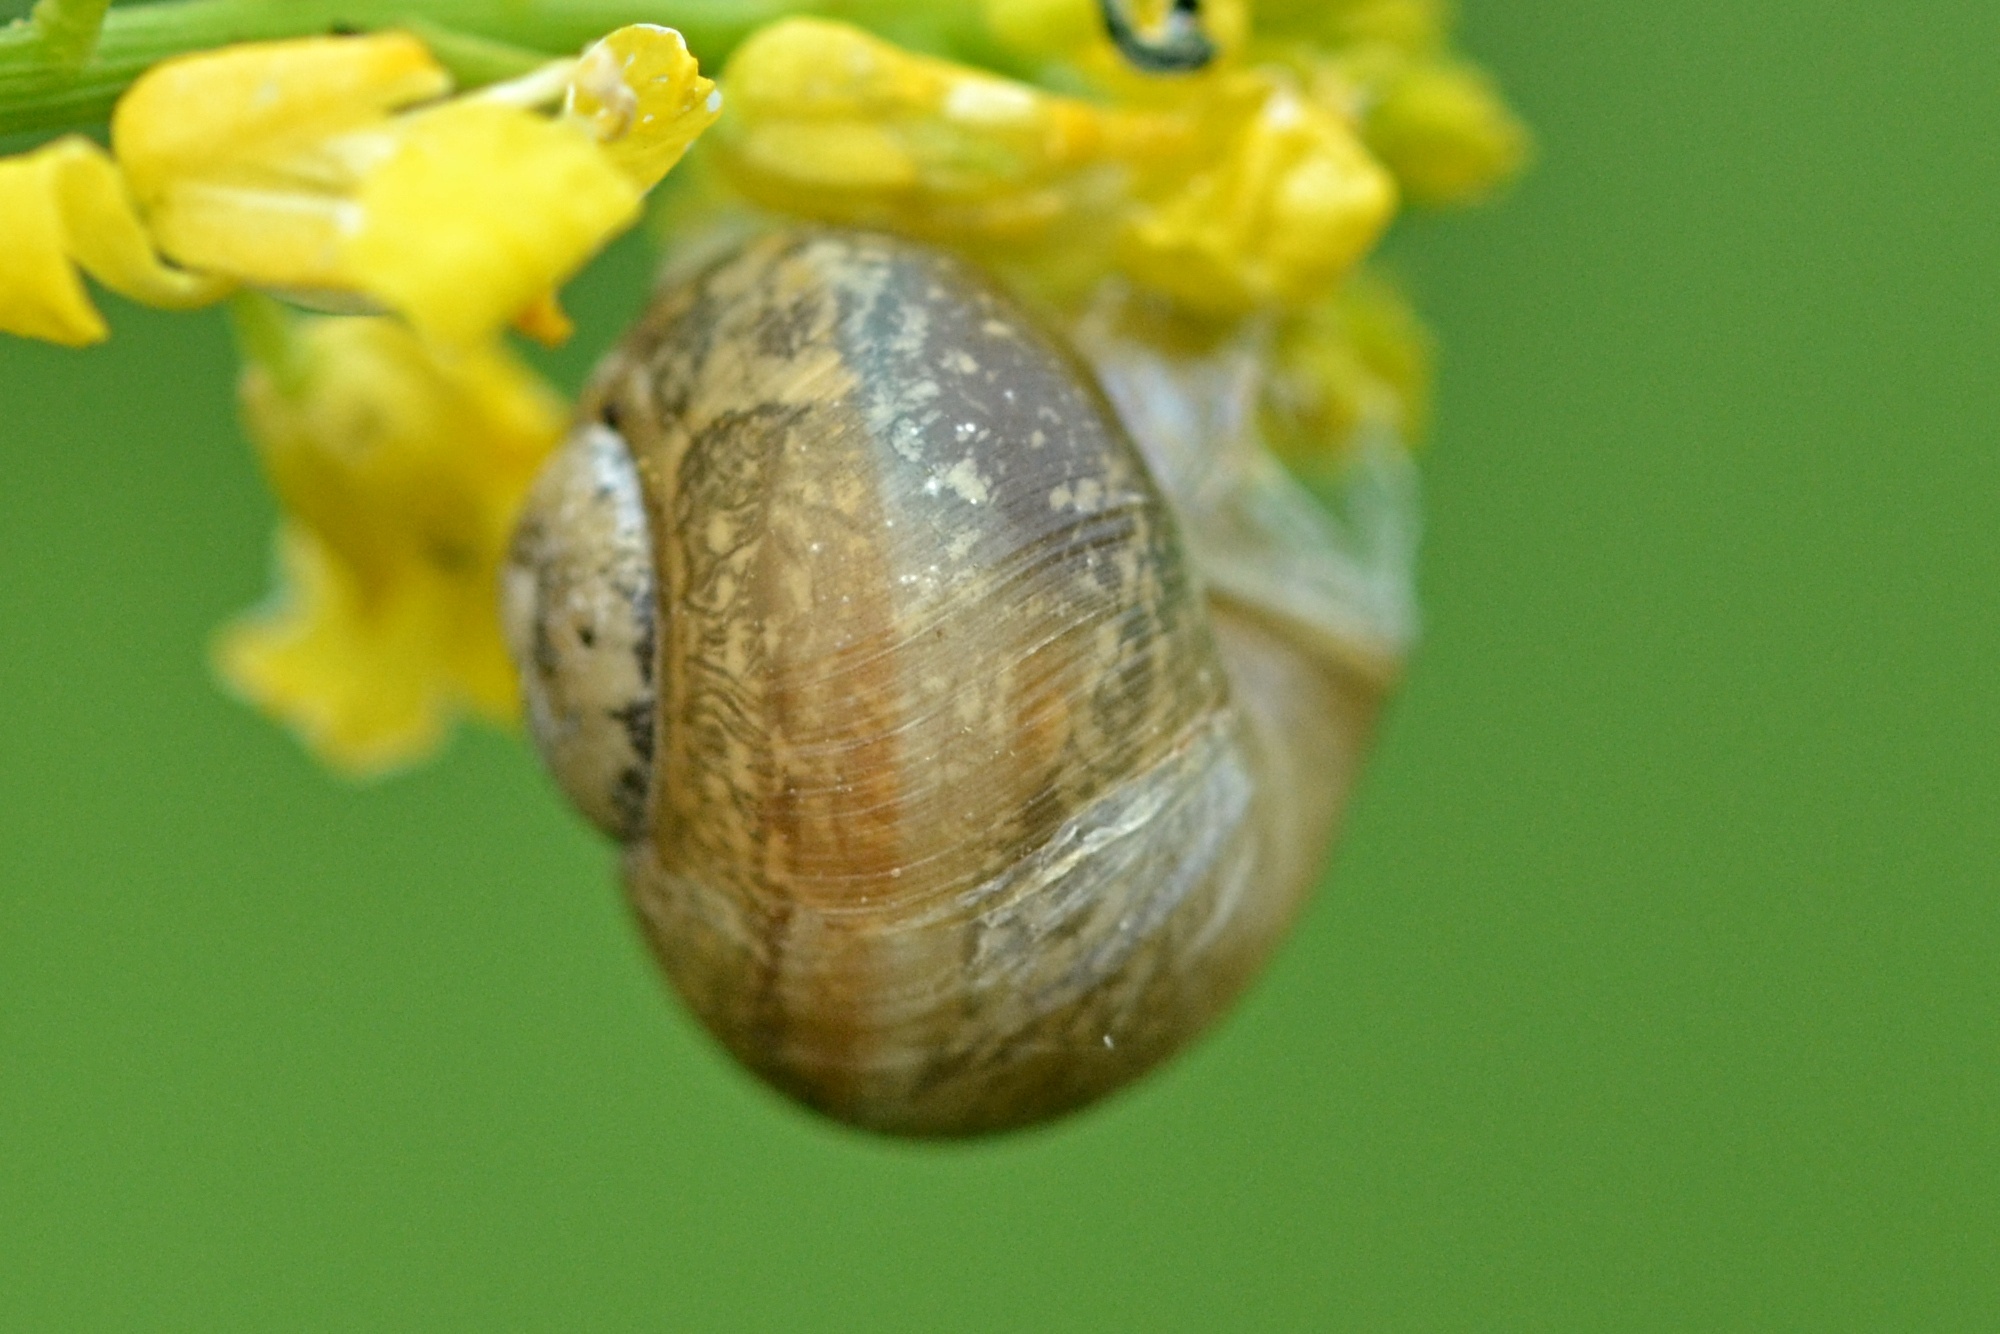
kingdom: Animalia
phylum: Mollusca
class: Gastropoda
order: Stylommatophora
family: Helicidae
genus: Helix
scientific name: Helix pomatia
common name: Roman snail
